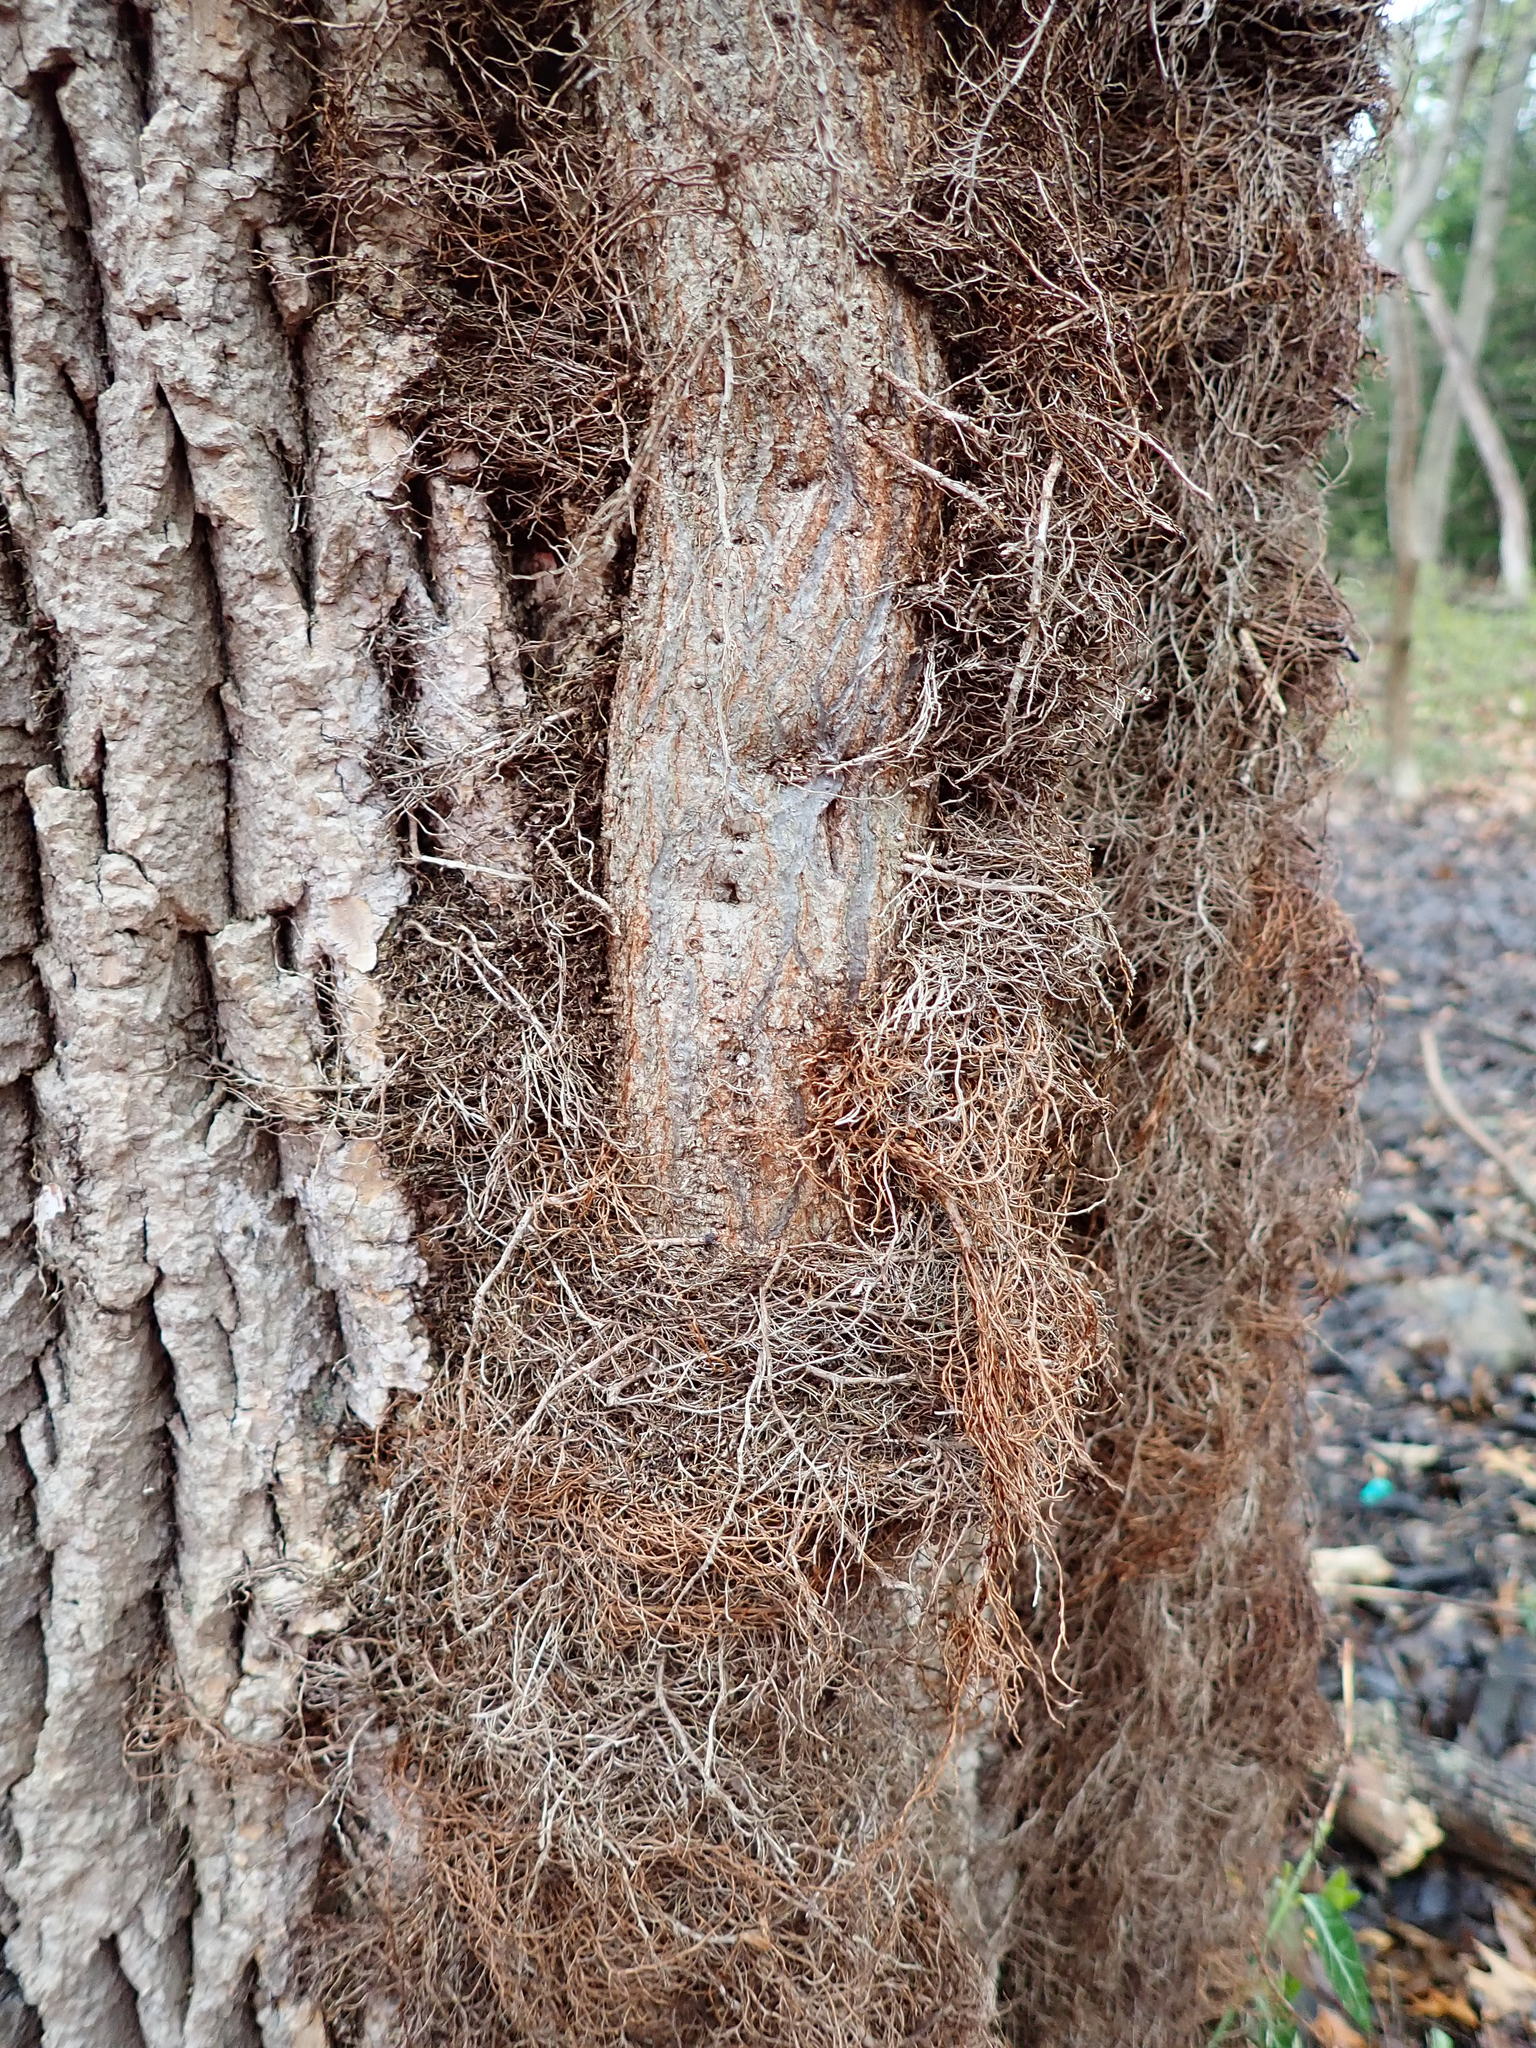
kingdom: Plantae
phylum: Tracheophyta
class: Magnoliopsida
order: Sapindales
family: Anacardiaceae
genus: Toxicodendron
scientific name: Toxicodendron radicans
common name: Poison ivy
